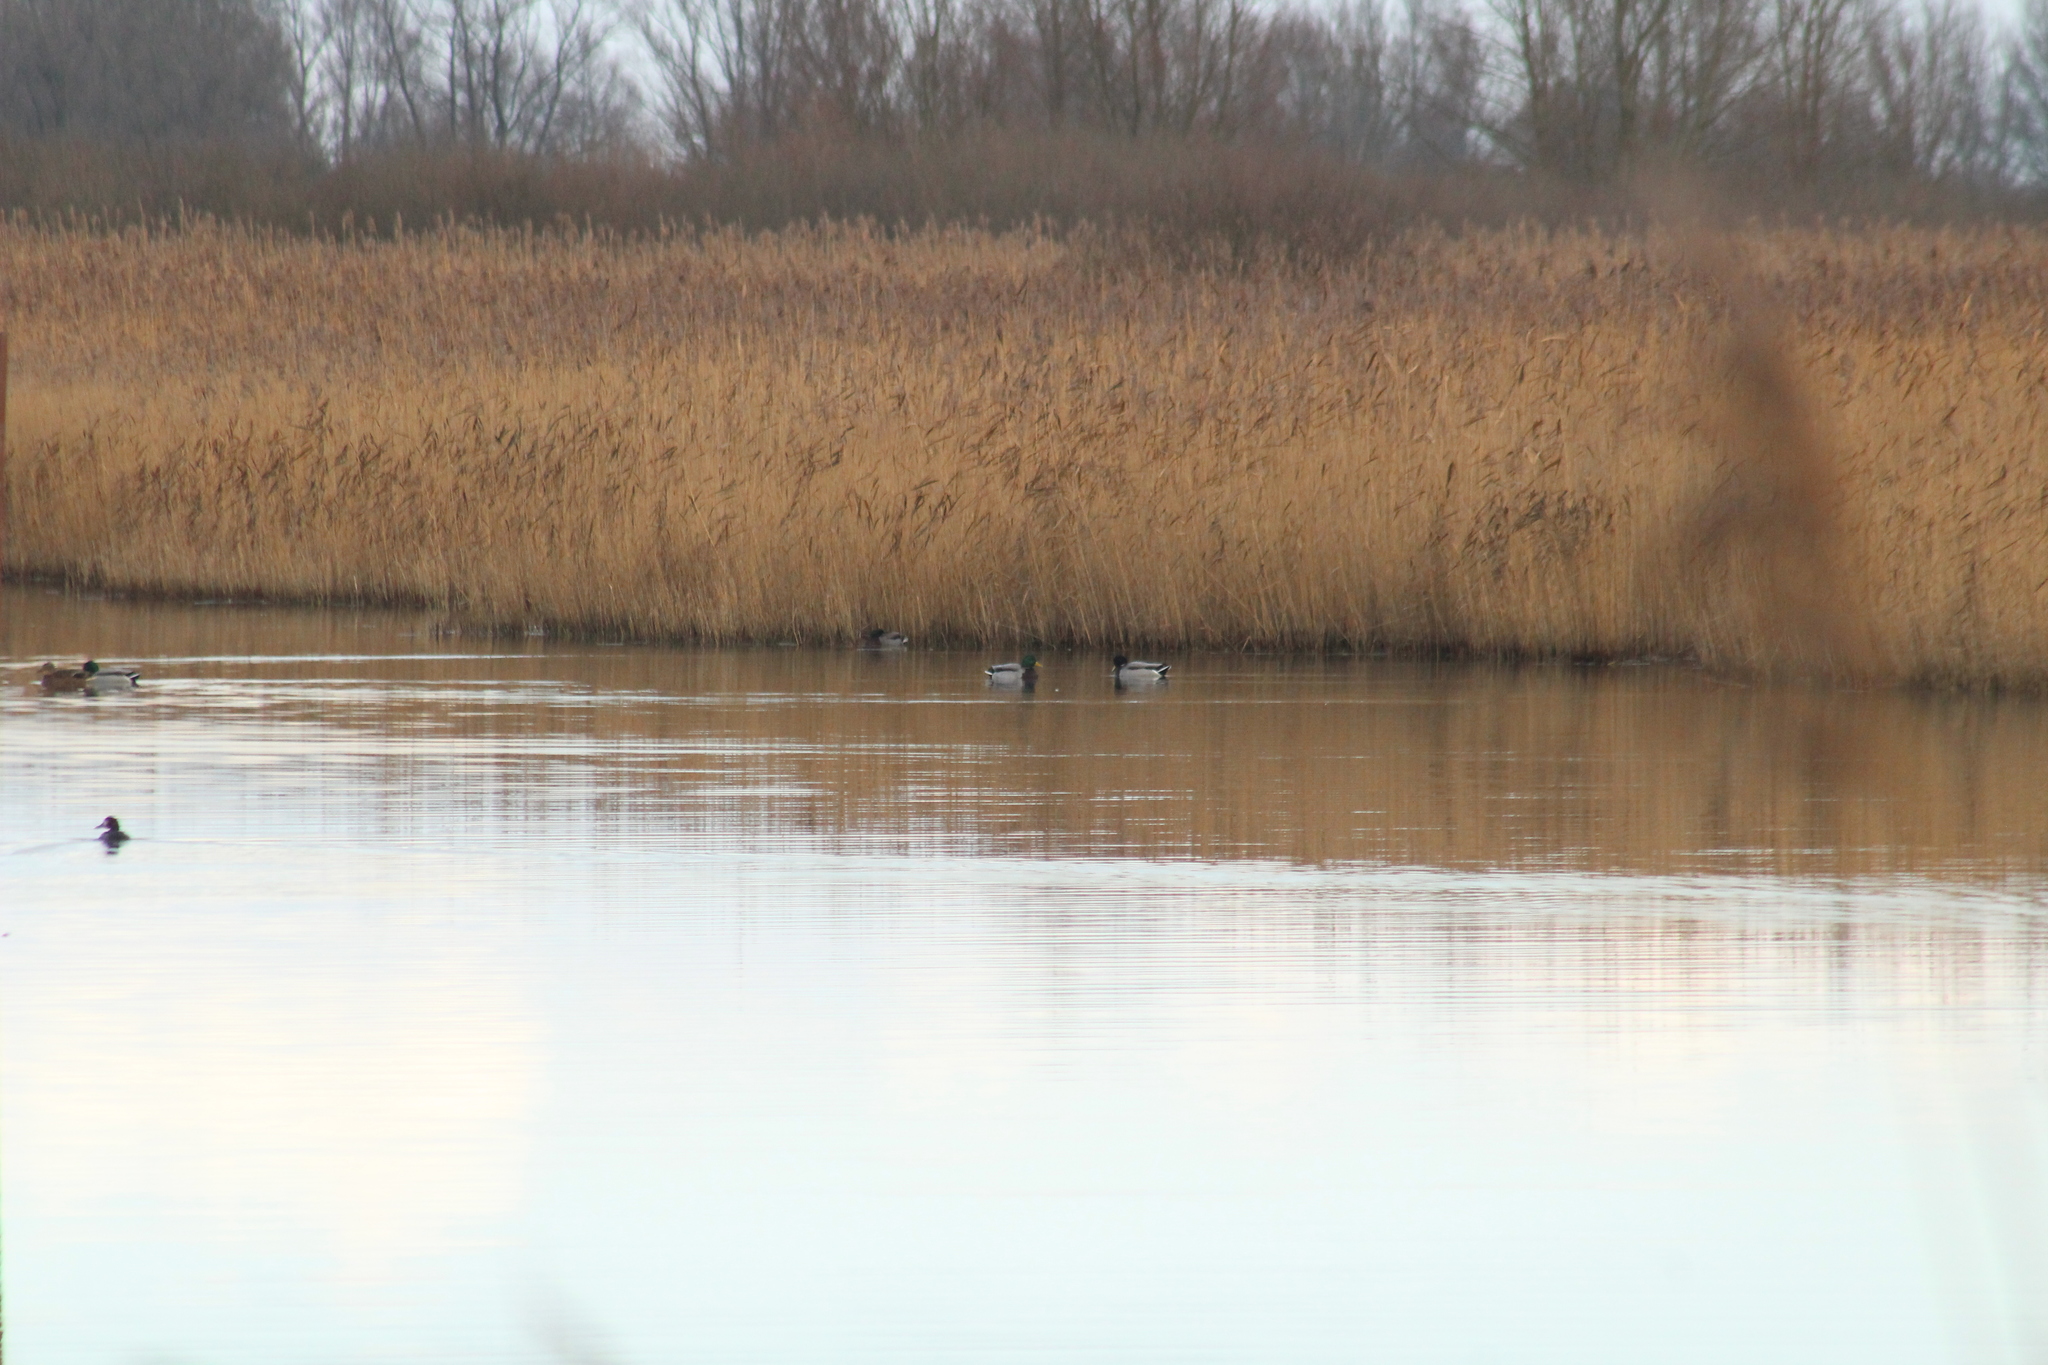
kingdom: Animalia
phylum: Chordata
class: Aves
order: Anseriformes
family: Anatidae
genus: Anas
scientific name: Anas platyrhynchos
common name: Mallard
